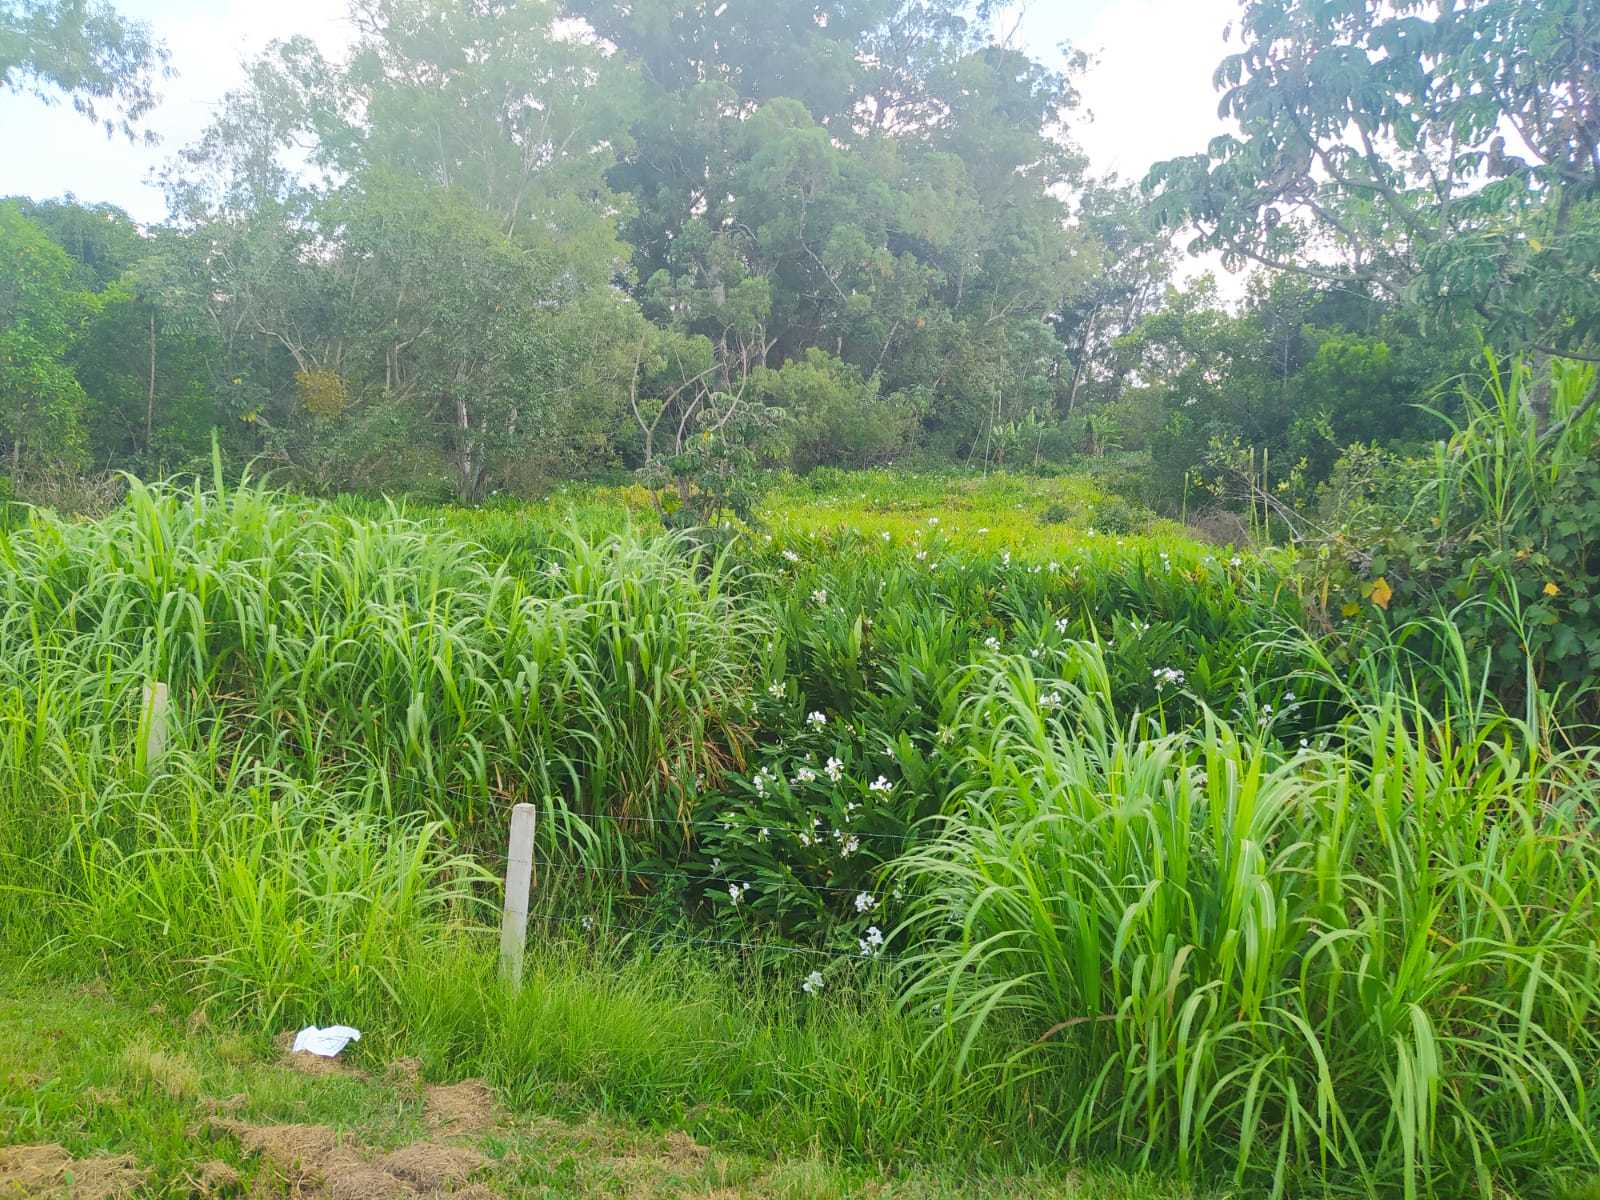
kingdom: Plantae
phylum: Tracheophyta
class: Liliopsida
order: Zingiberales
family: Zingiberaceae
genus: Hedychium
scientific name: Hedychium coronarium
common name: White garland-lily
